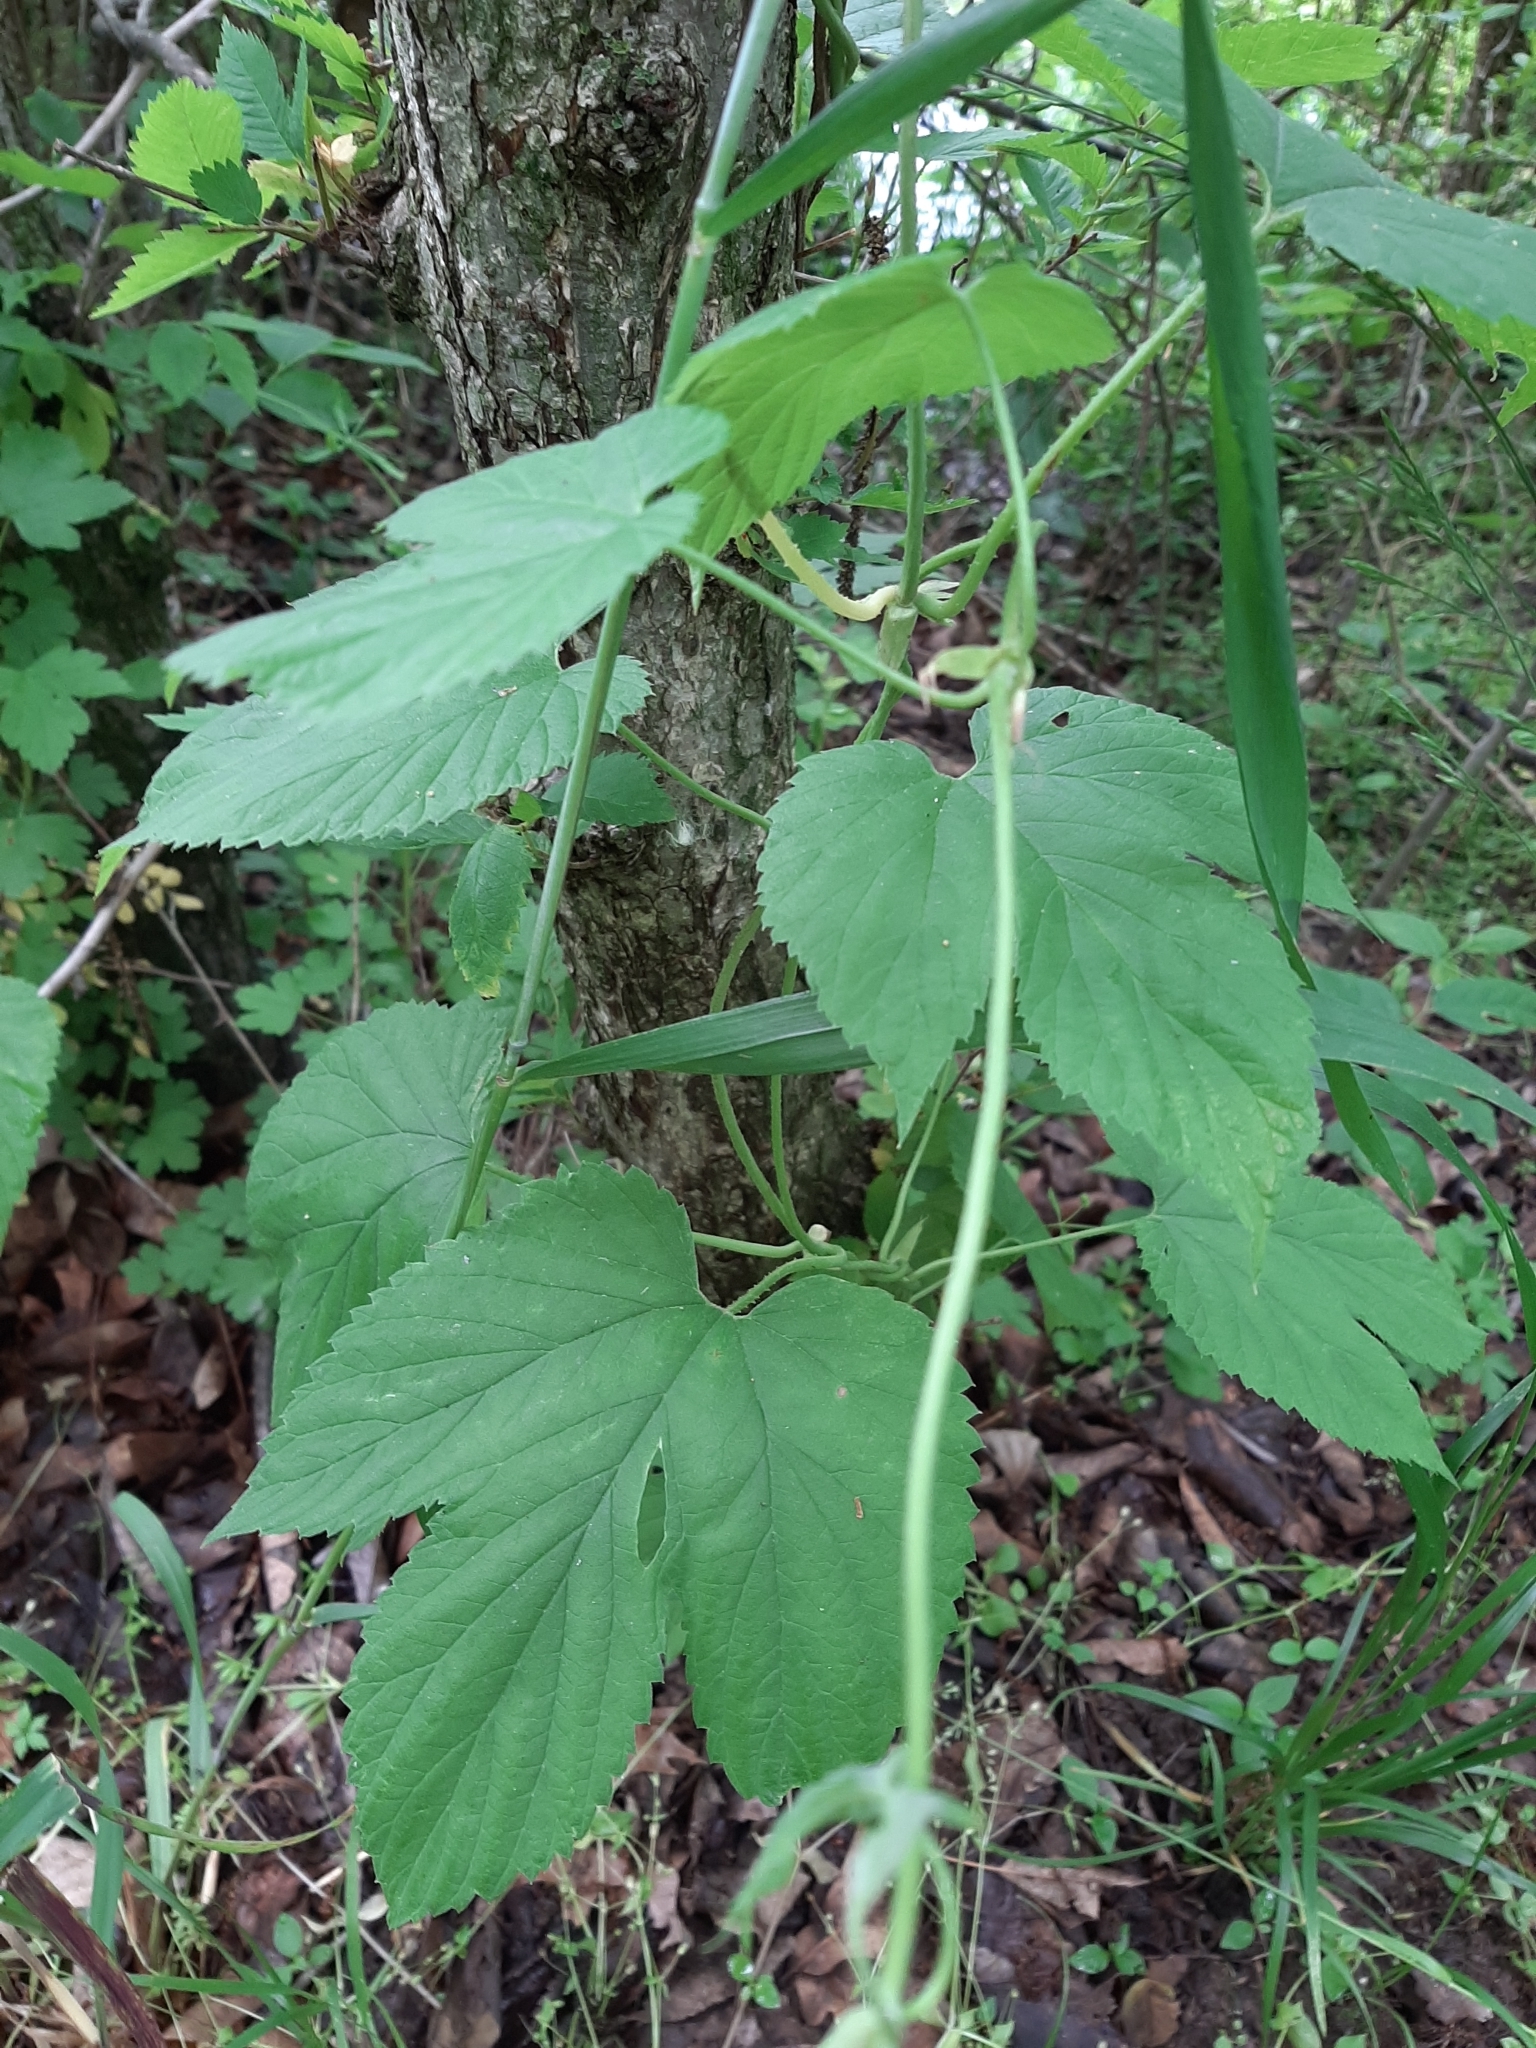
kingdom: Plantae
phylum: Tracheophyta
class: Magnoliopsida
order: Rosales
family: Cannabaceae
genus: Humulus
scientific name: Humulus lupulus
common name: Hop
